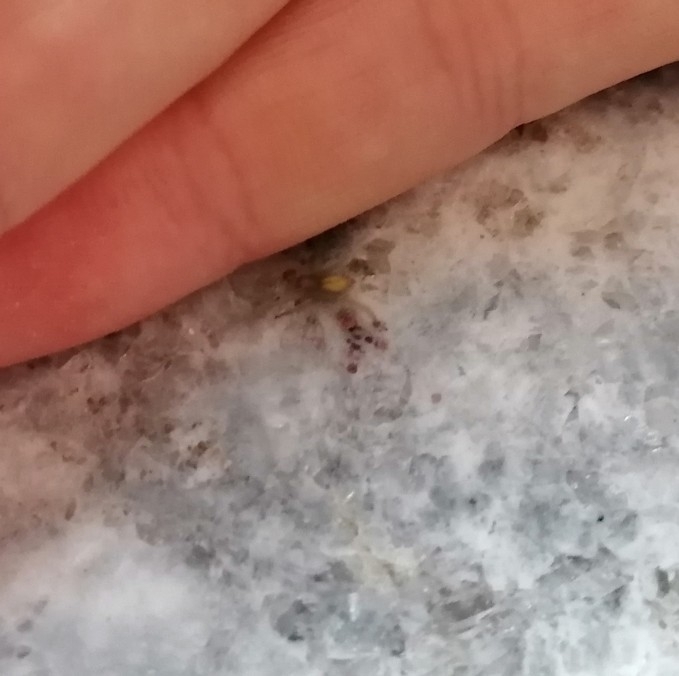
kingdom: Animalia
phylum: Arthropoda
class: Arachnida
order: Araneae
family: Cheiracanthiidae
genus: Cheiracanthium
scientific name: Cheiracanthium mildei
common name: Northern yellow sac spider
